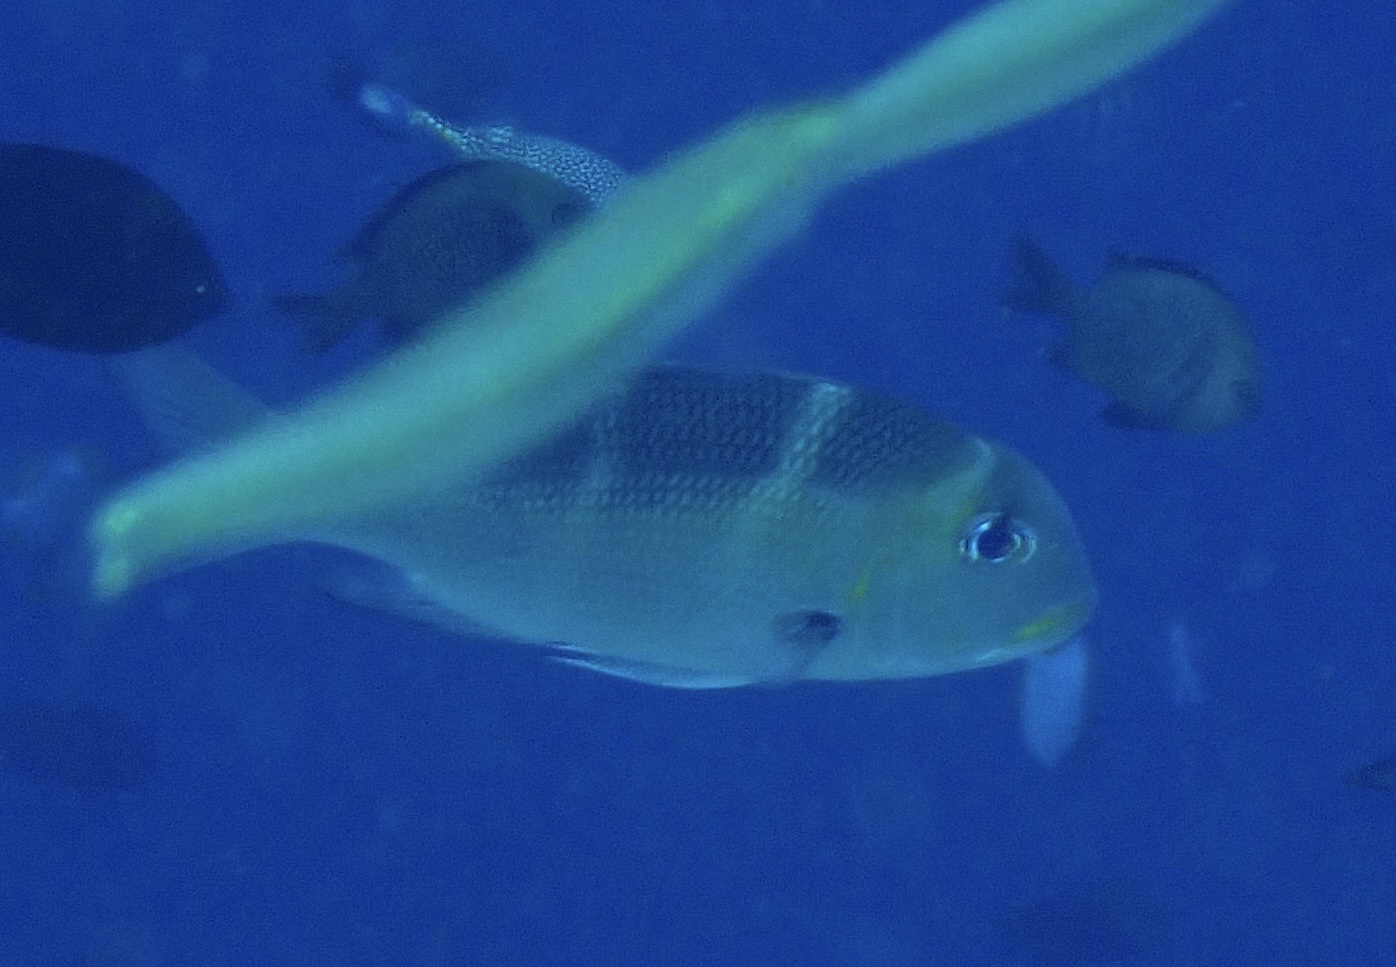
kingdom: Animalia
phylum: Chordata
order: Perciformes
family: Lethrinidae
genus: Monotaxis
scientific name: Monotaxis grandoculis
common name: Bigeye emperor
